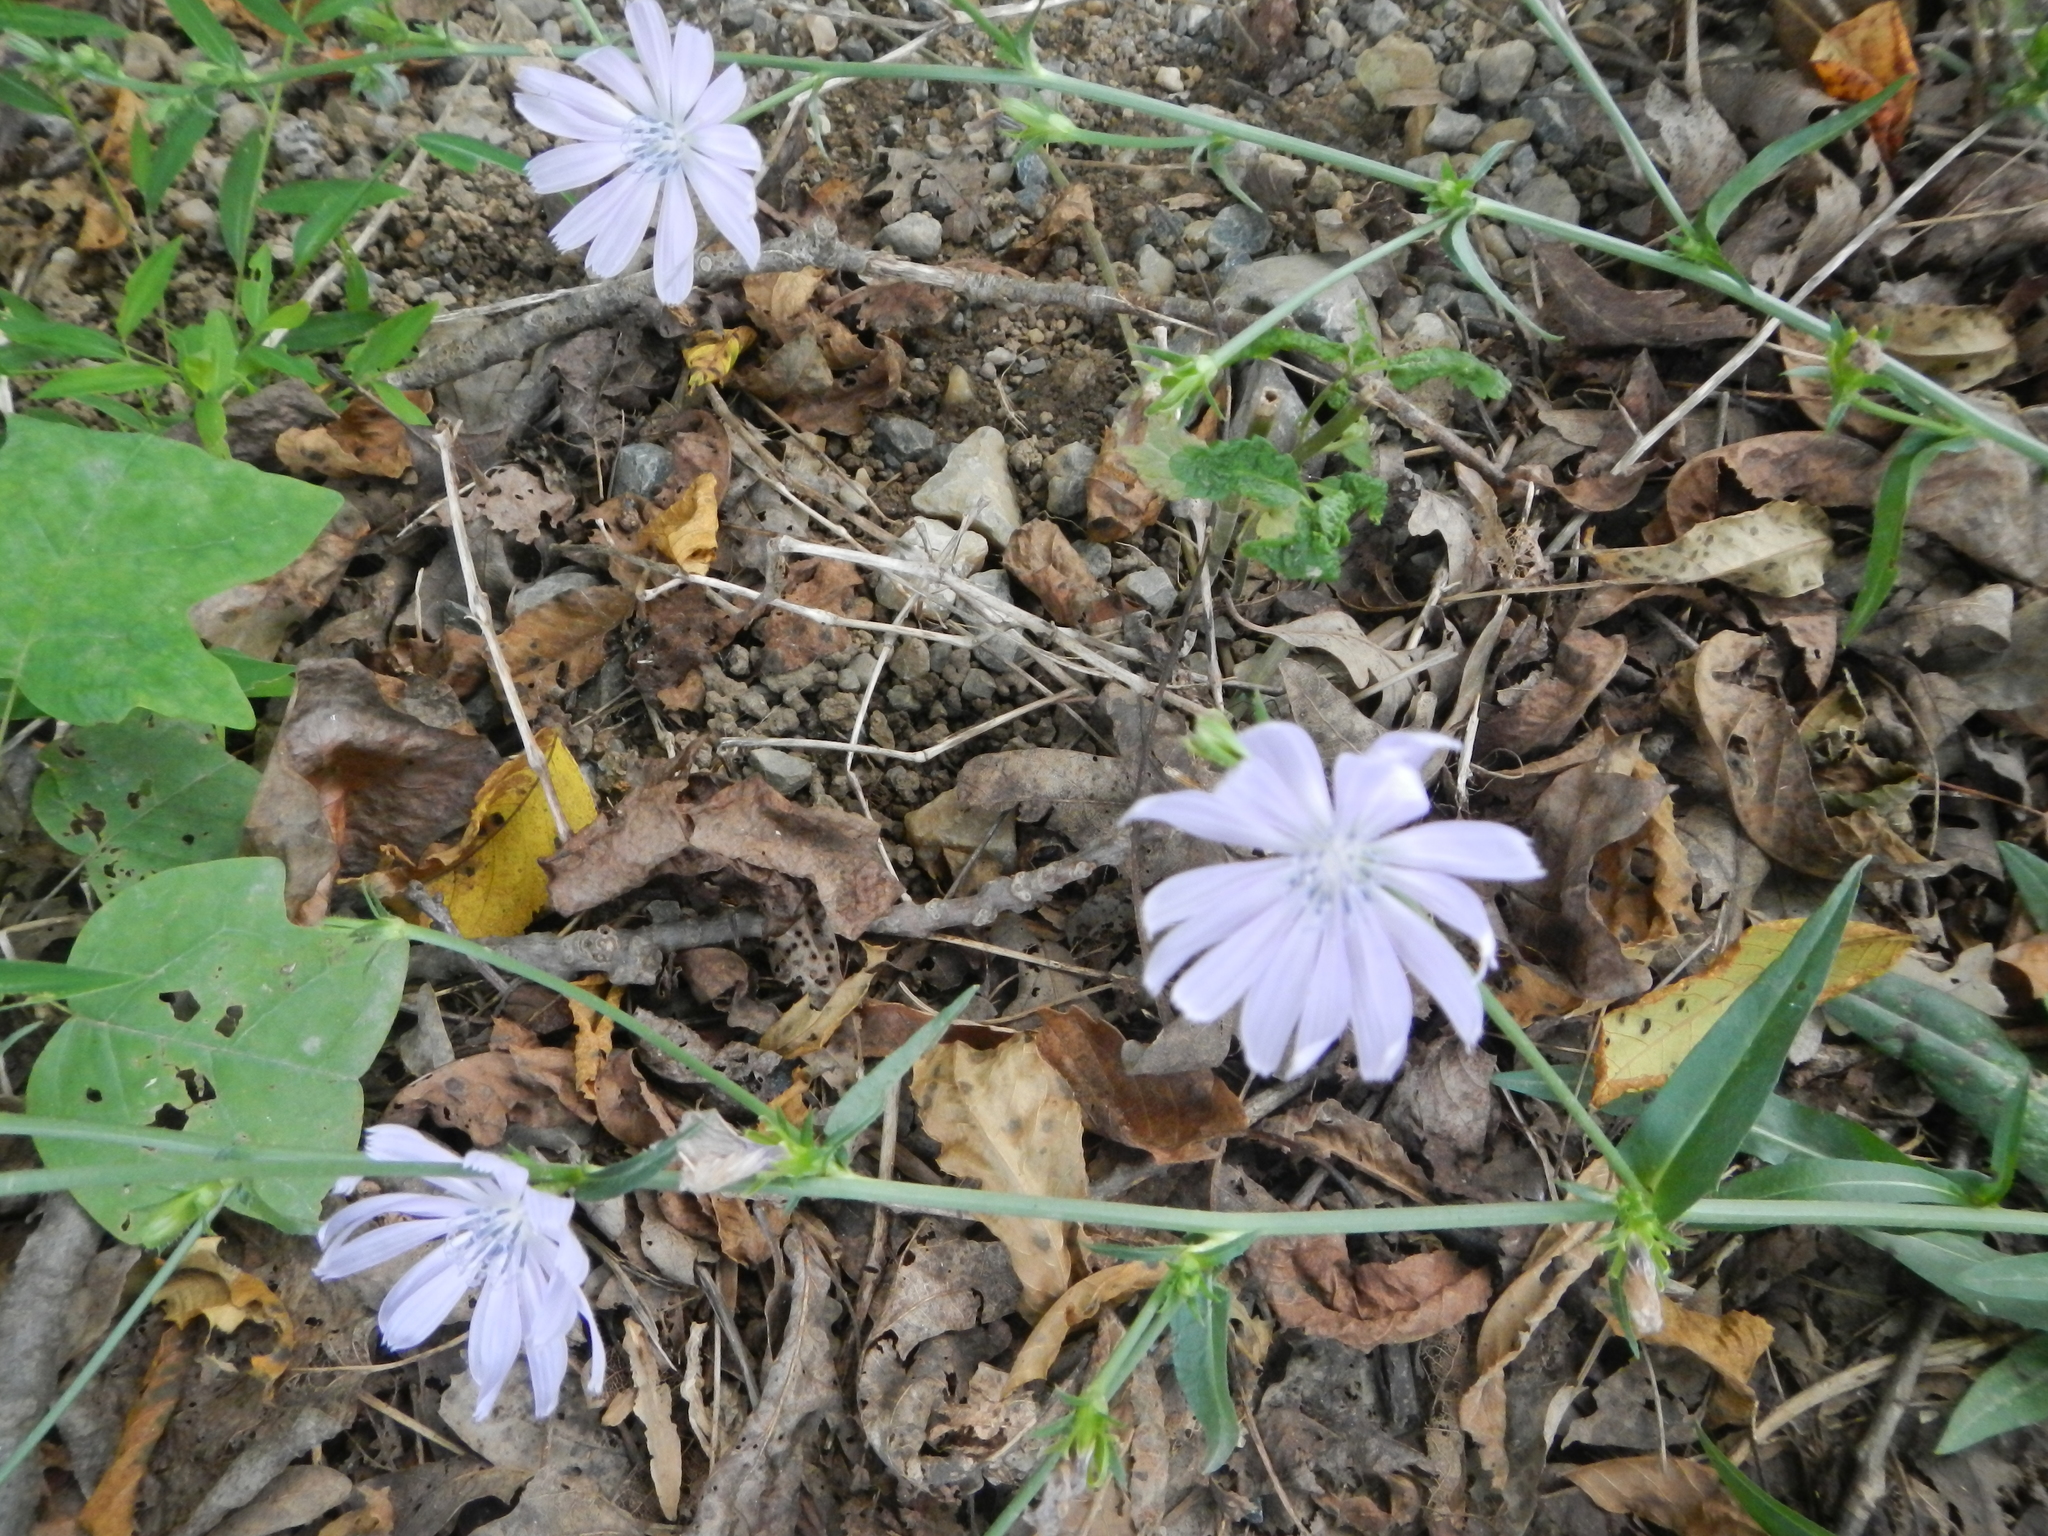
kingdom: Plantae
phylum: Tracheophyta
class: Magnoliopsida
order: Asterales
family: Asteraceae
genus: Cichorium
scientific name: Cichorium intybus
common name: Chicory
